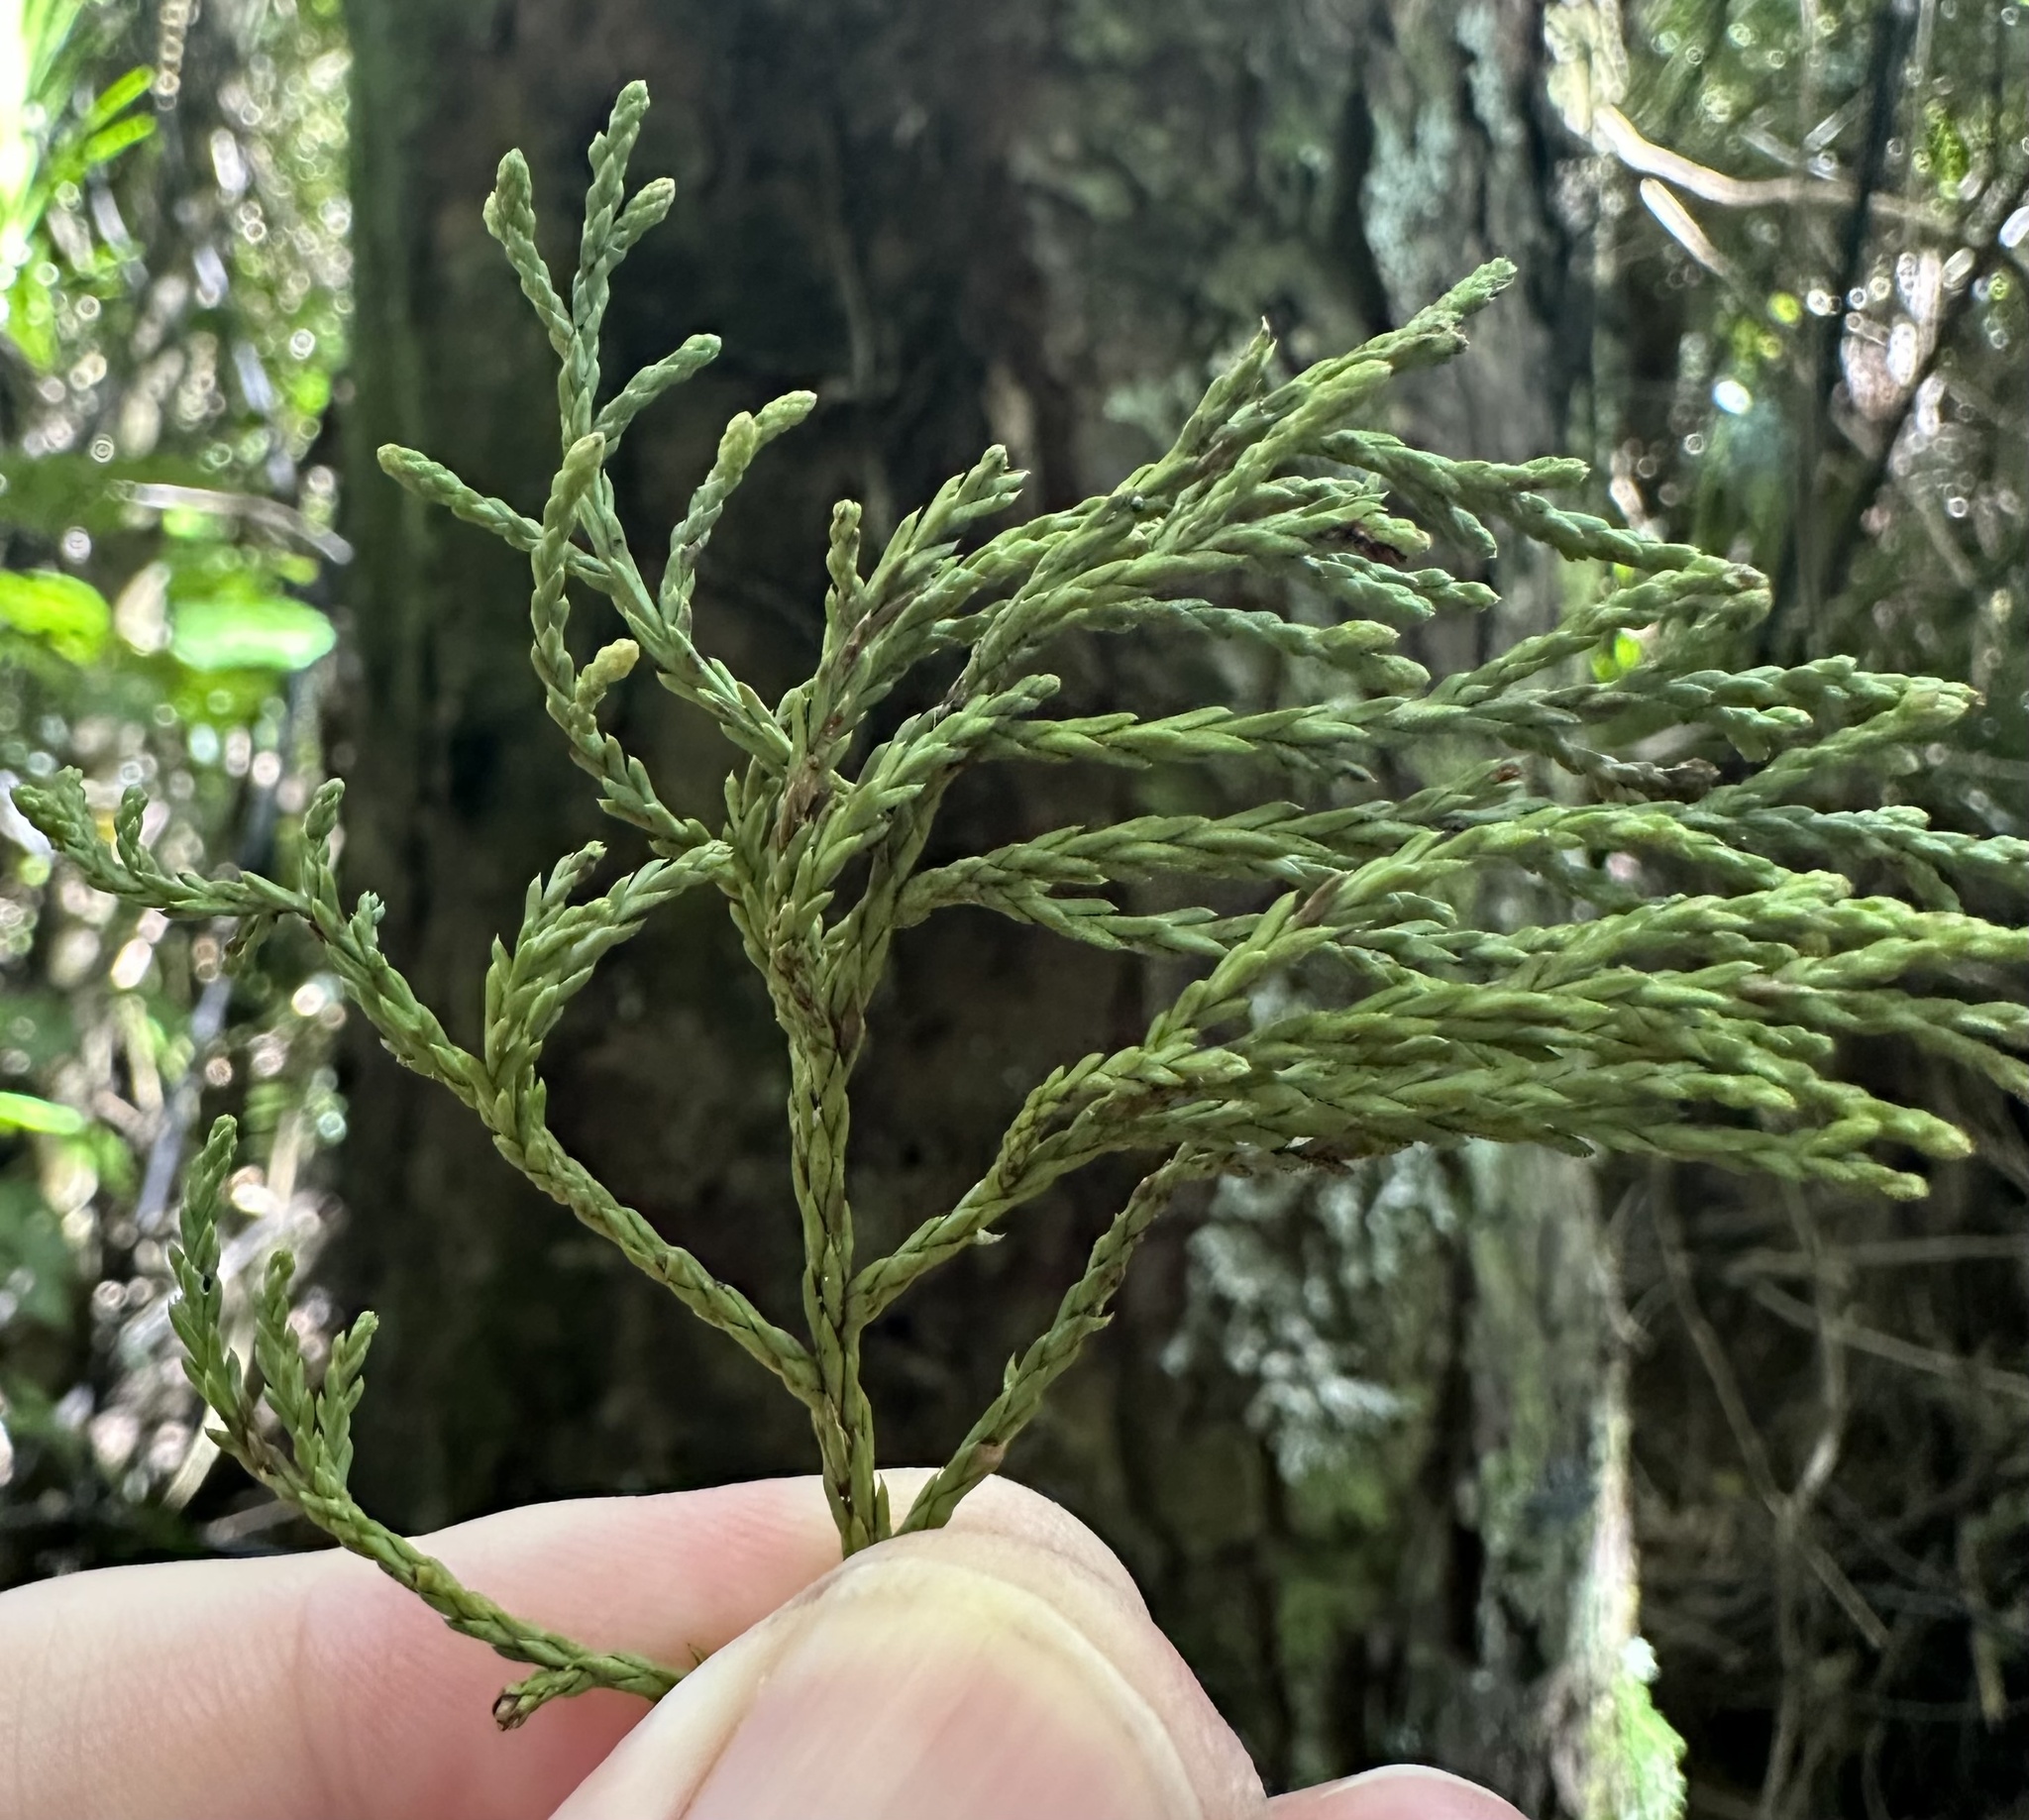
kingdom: Plantae
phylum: Tracheophyta
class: Pinopsida
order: Pinales
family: Podocarpaceae
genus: Dacrycarpus
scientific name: Dacrycarpus dacrydioides
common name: White pine
